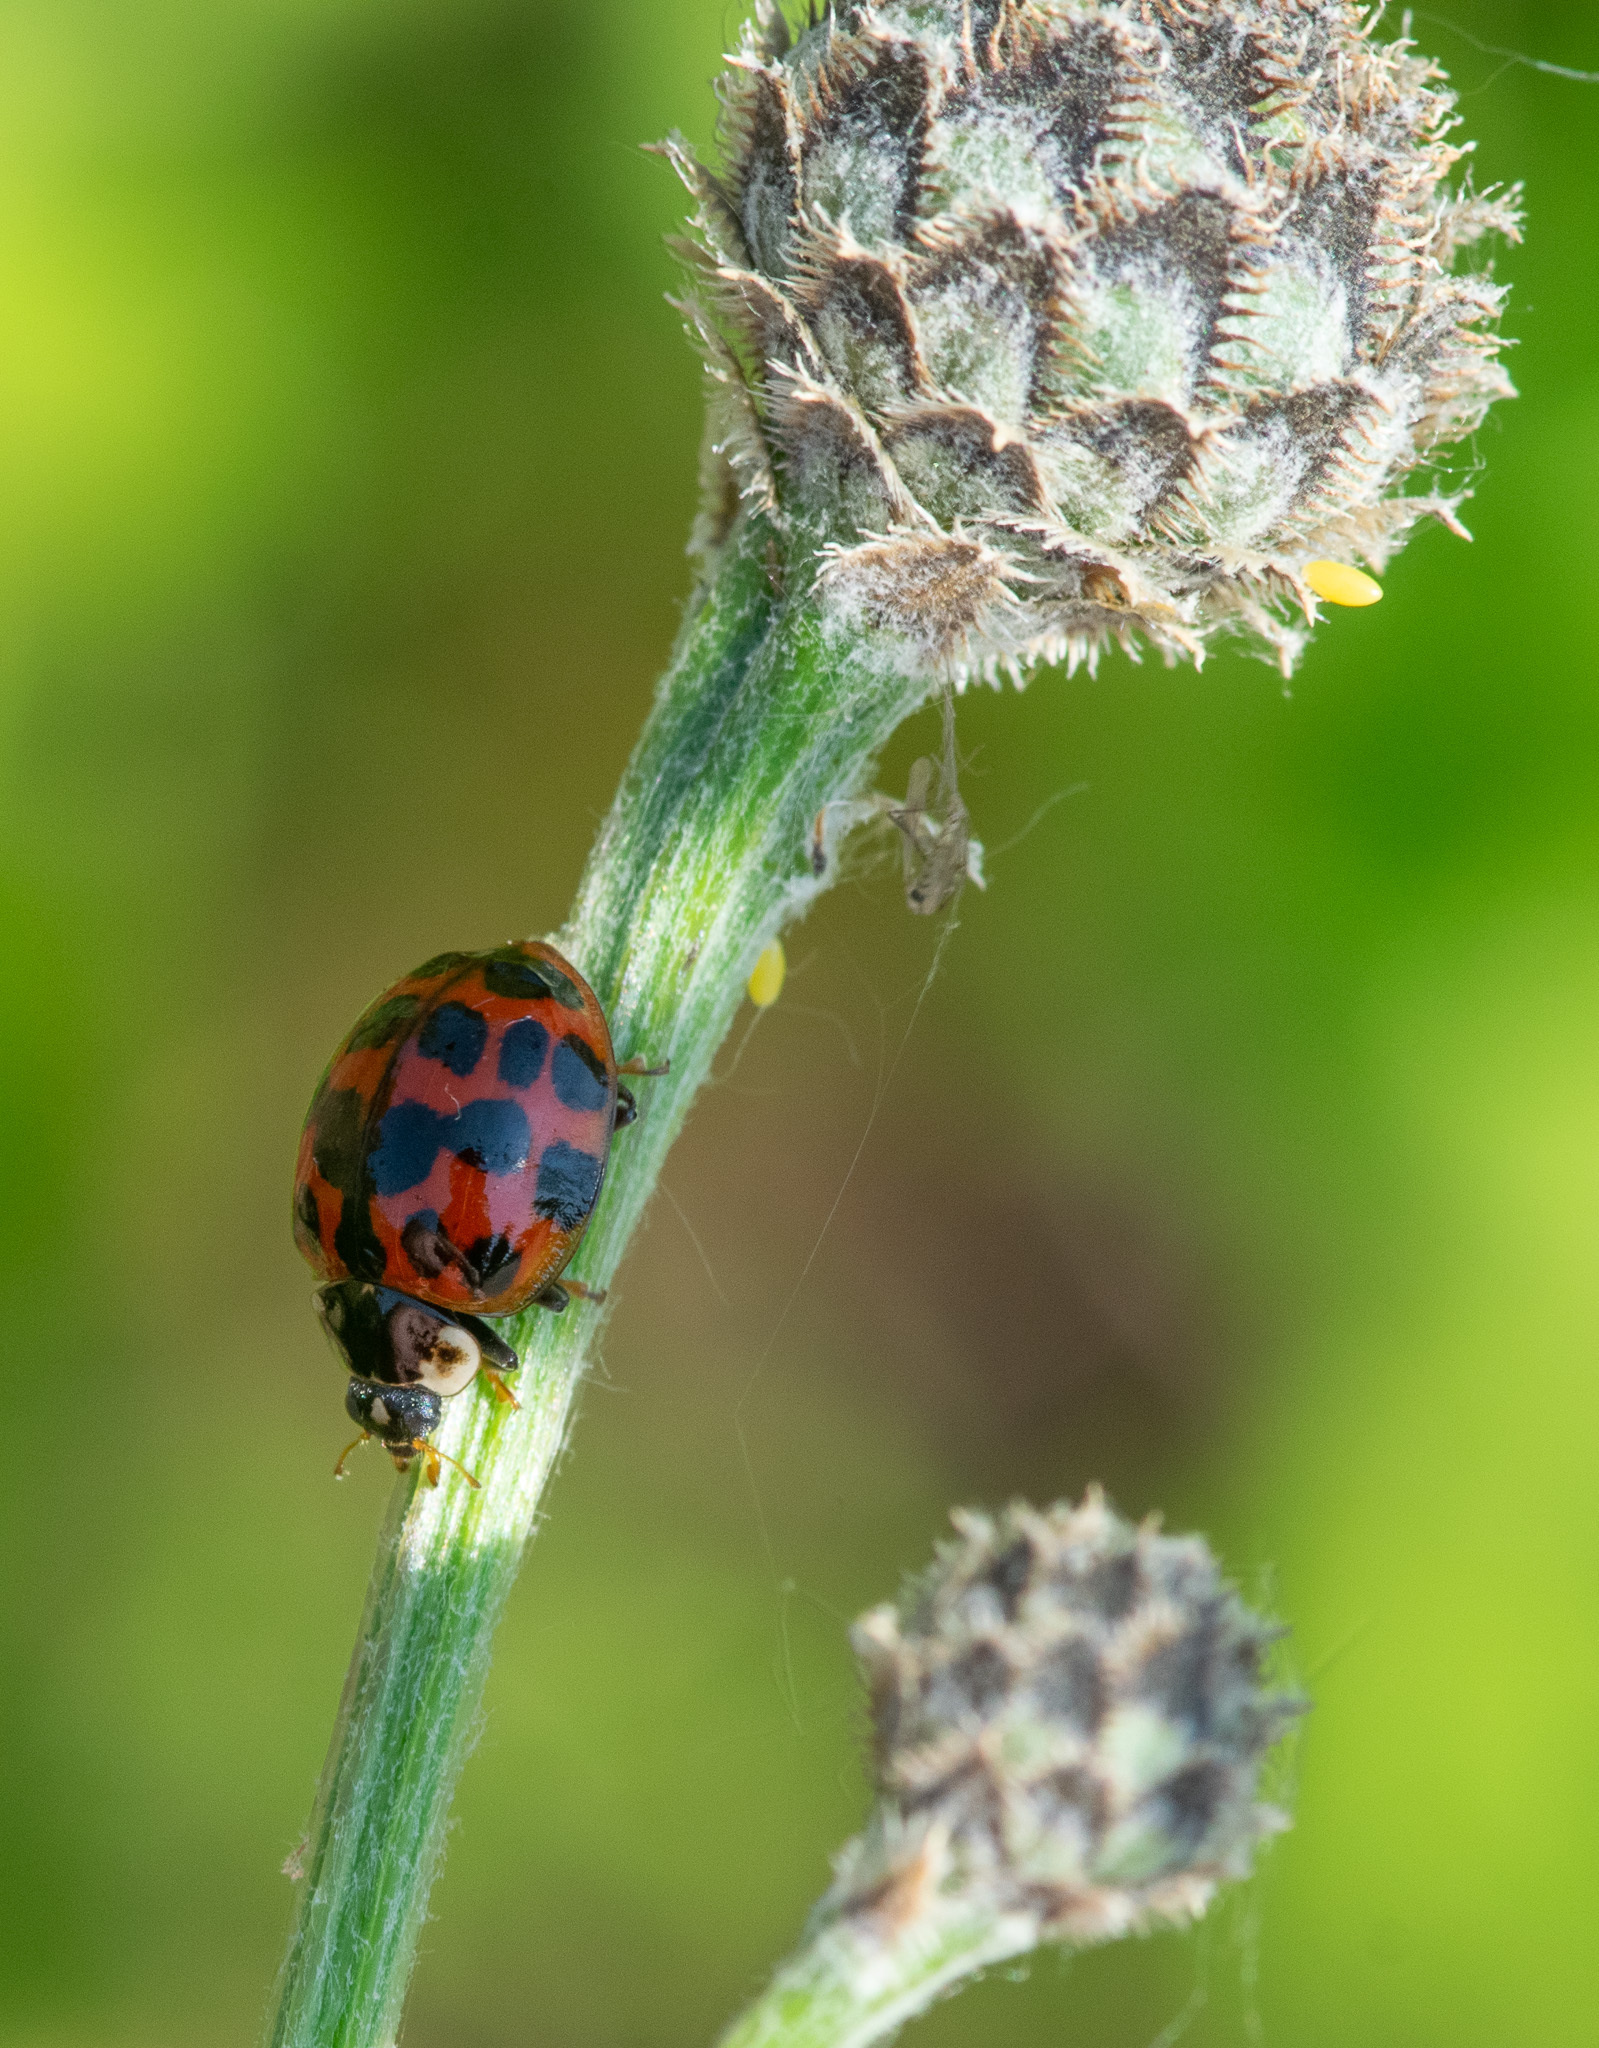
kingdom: Animalia
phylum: Arthropoda
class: Insecta
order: Coleoptera
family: Coccinellidae
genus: Harmonia
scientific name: Harmonia axyridis
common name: Harlequin ladybird
